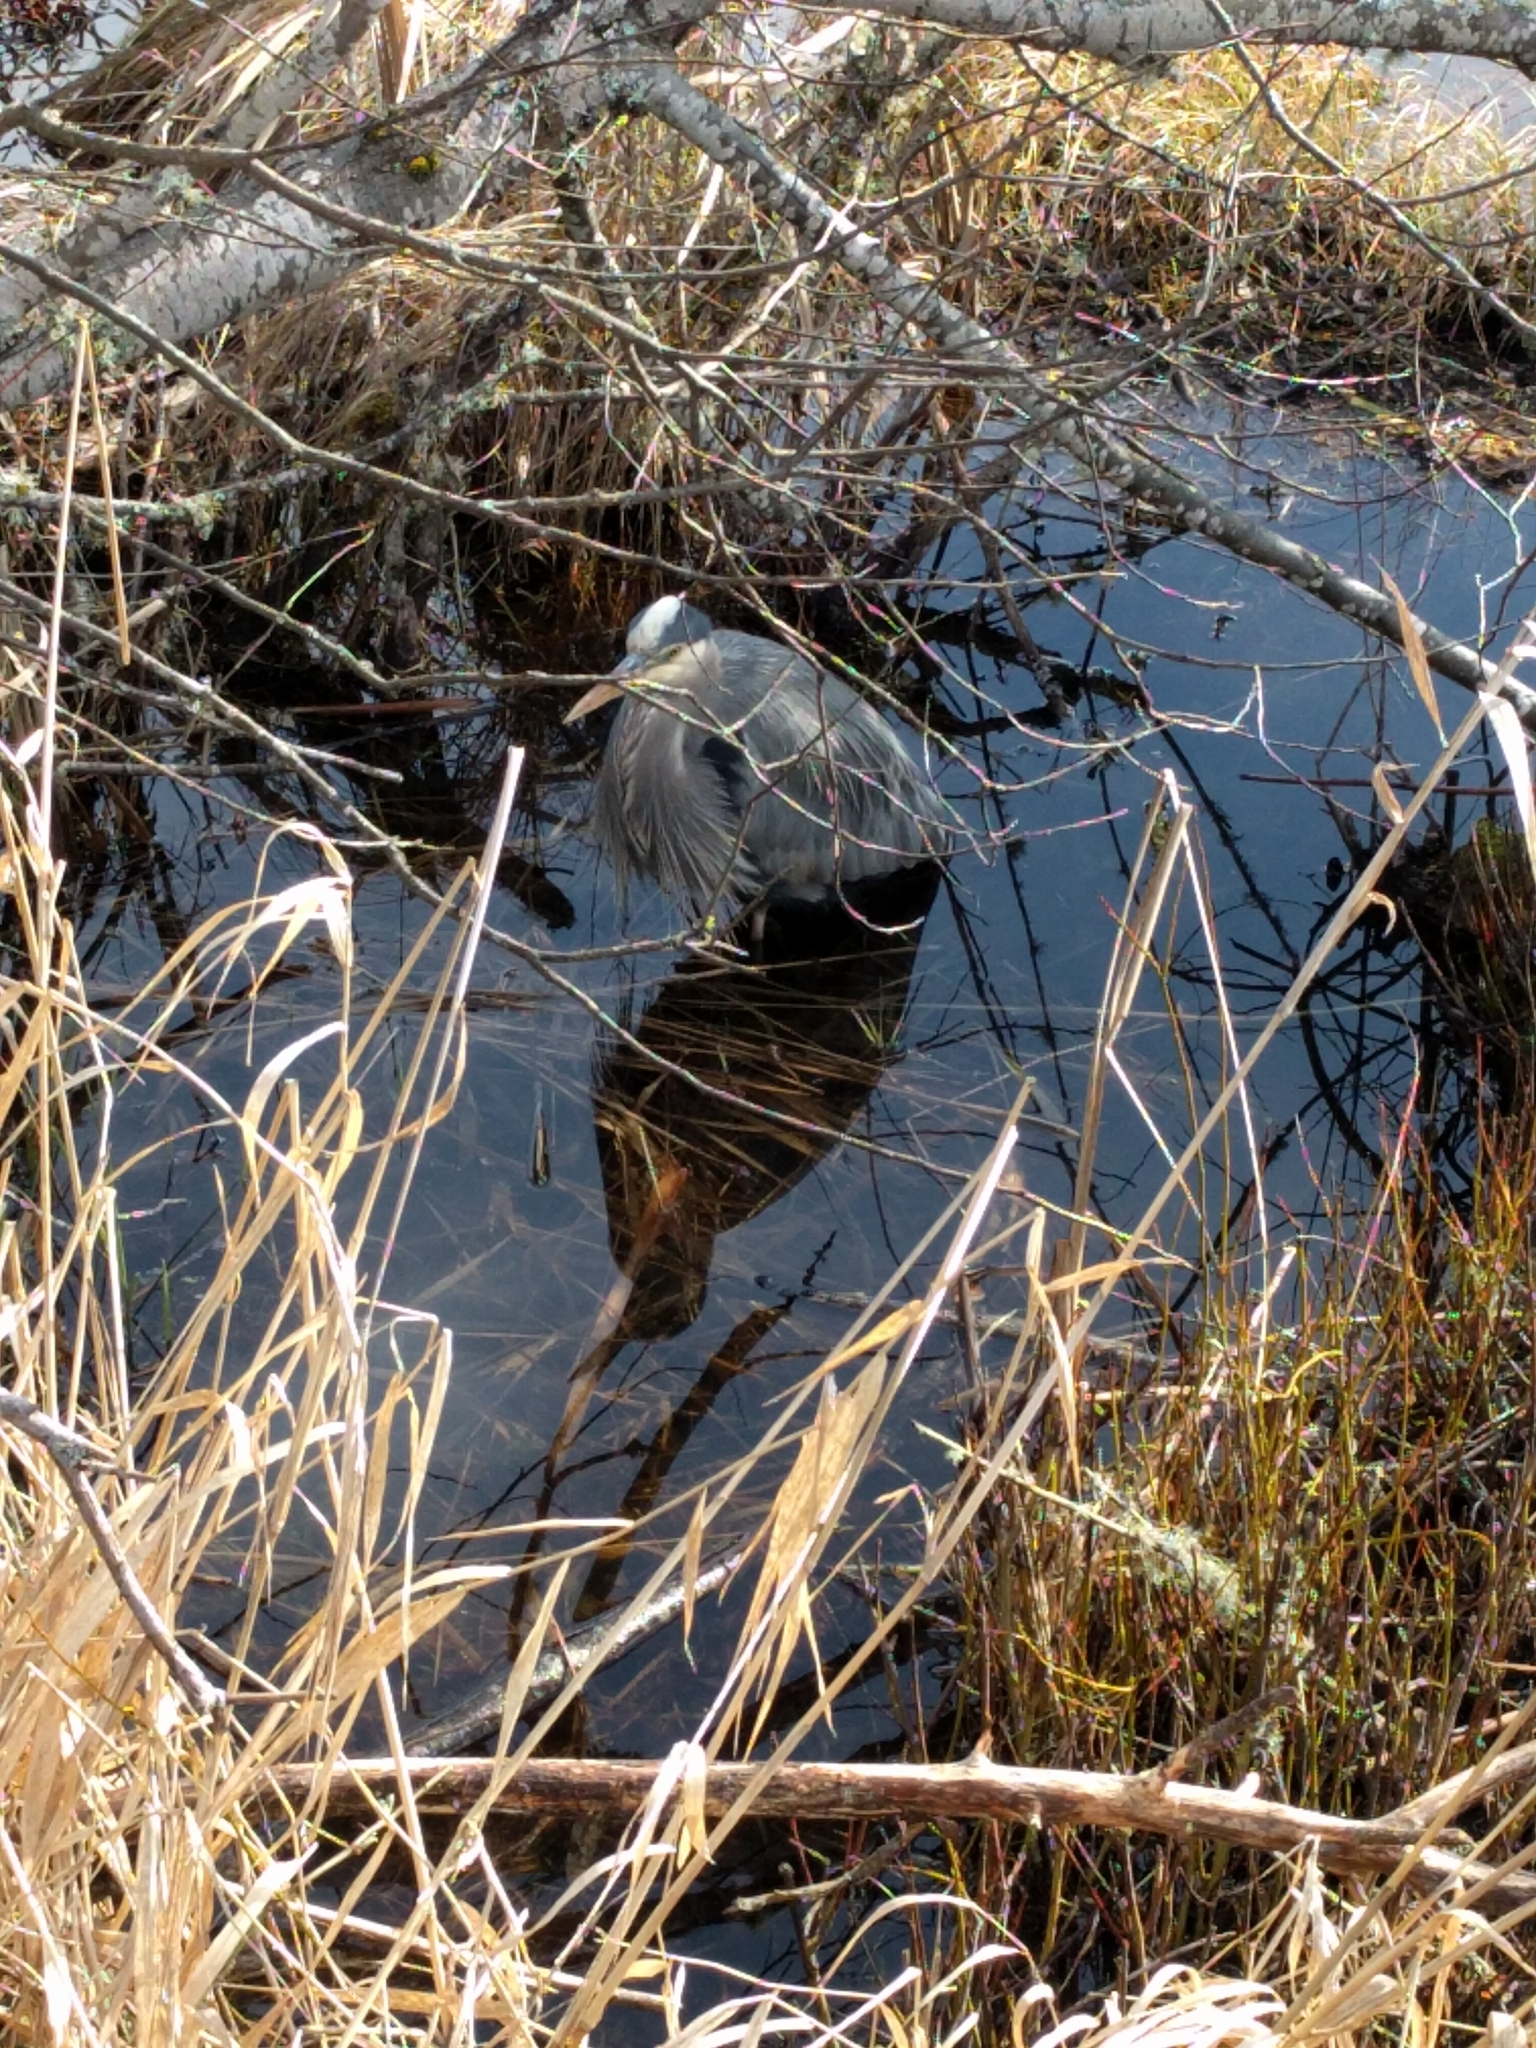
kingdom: Animalia
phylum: Chordata
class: Aves
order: Pelecaniformes
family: Ardeidae
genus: Ardea
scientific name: Ardea herodias
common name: Great blue heron
